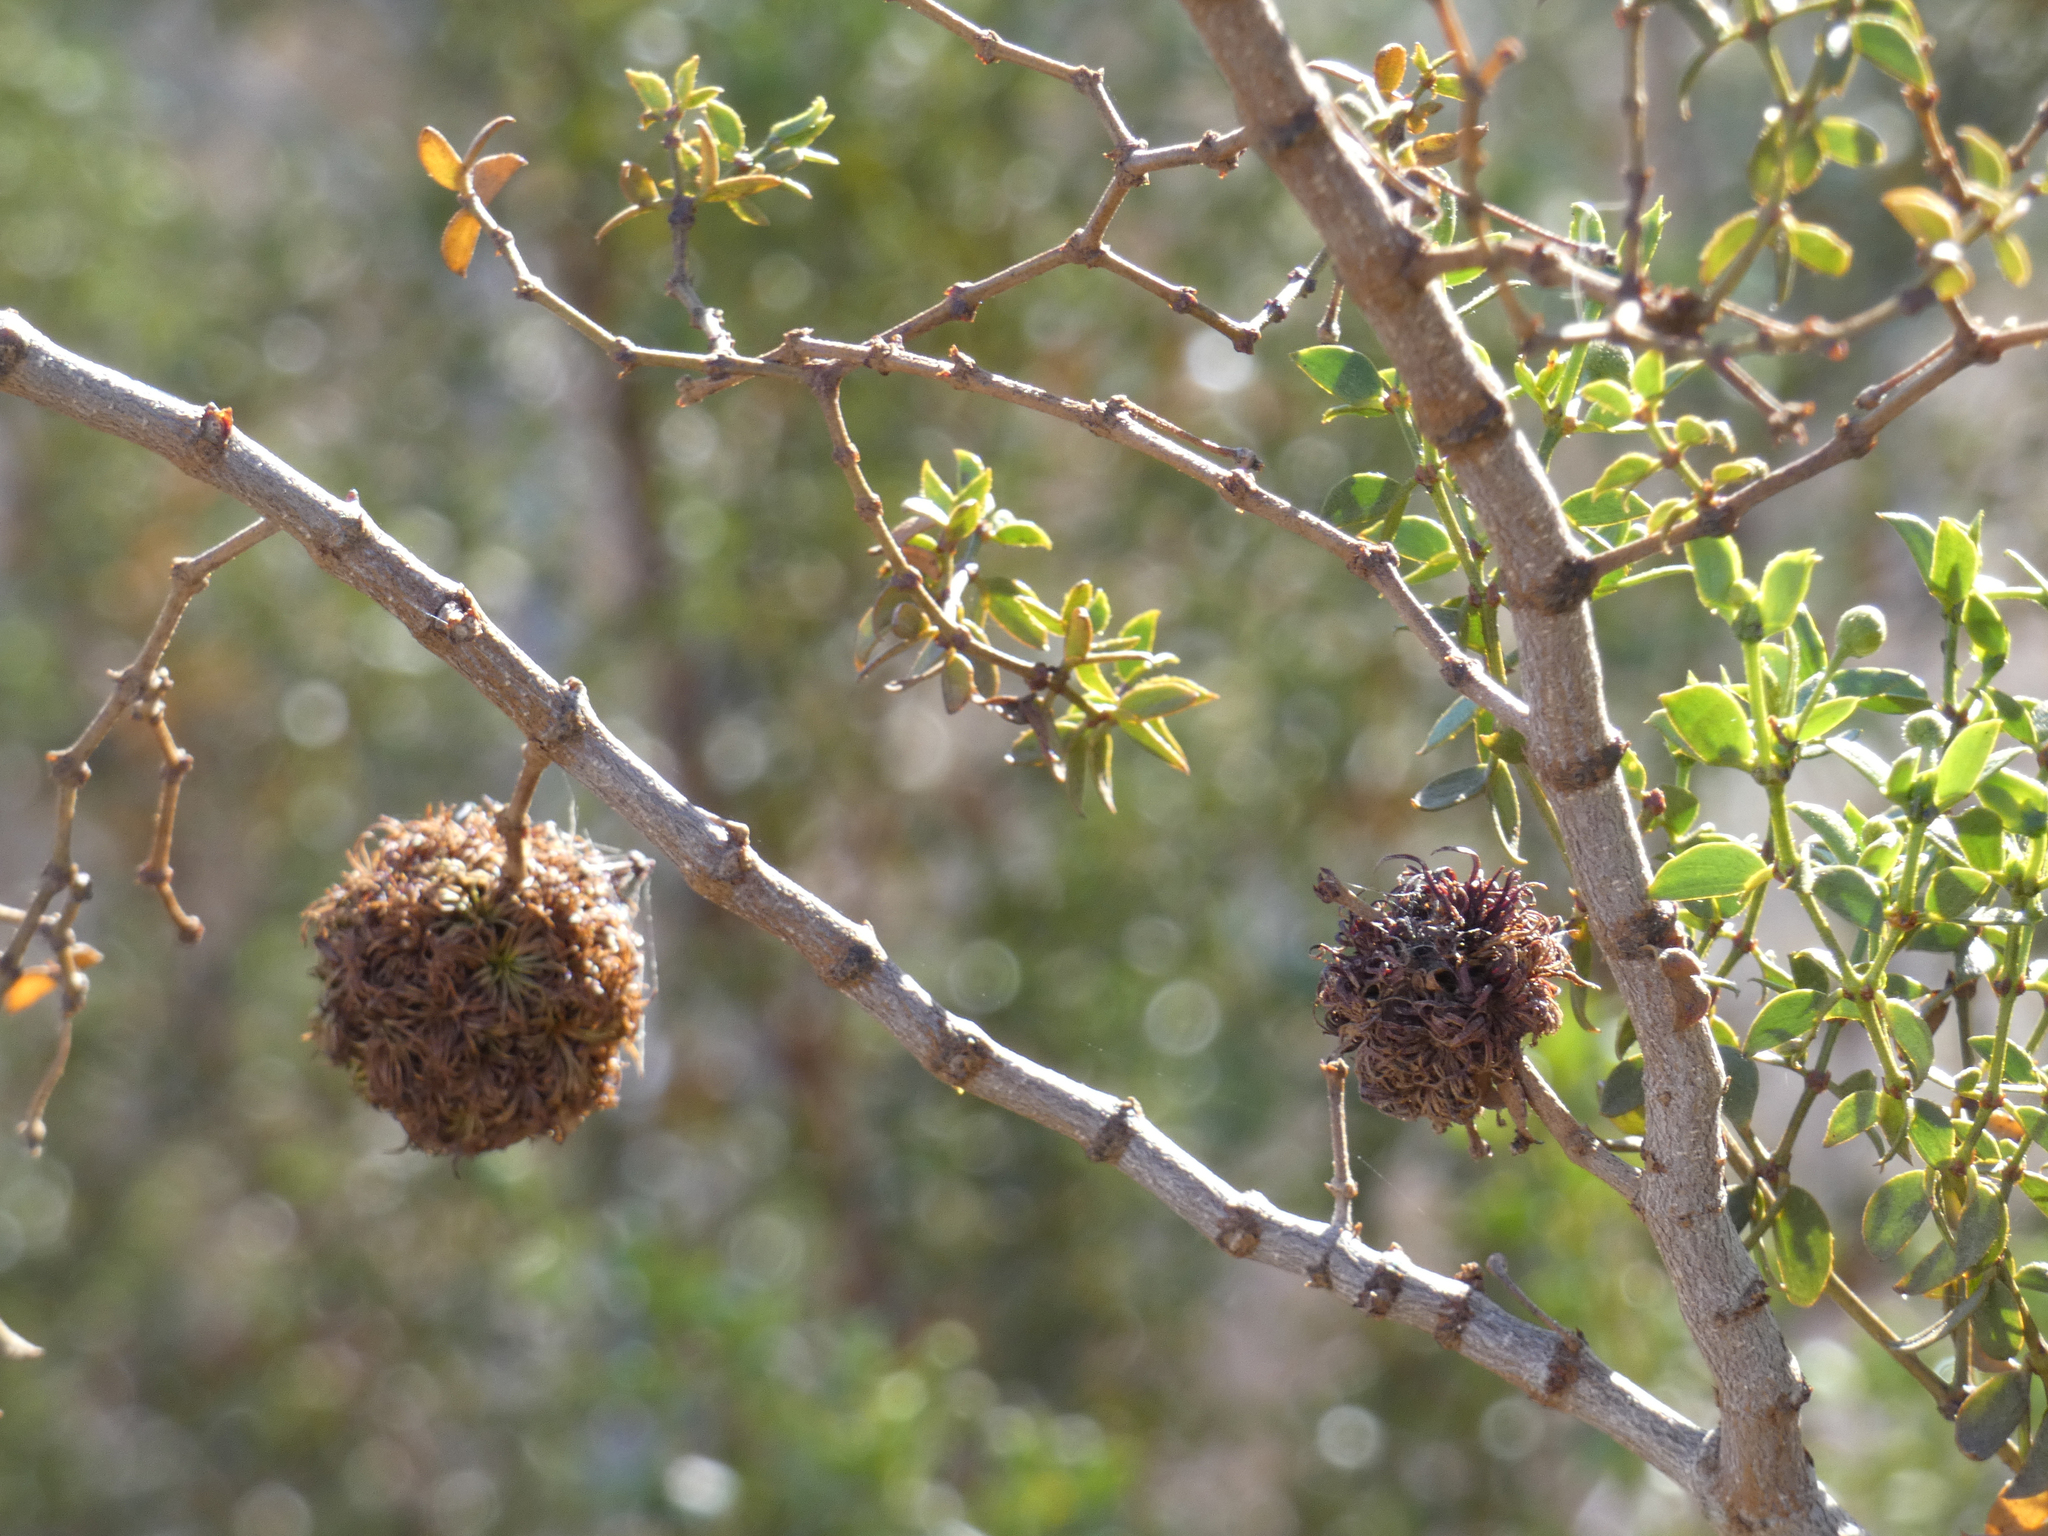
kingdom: Animalia
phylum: Arthropoda
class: Insecta
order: Diptera
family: Cecidomyiidae
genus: Asphondylia
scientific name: Asphondylia auripila
